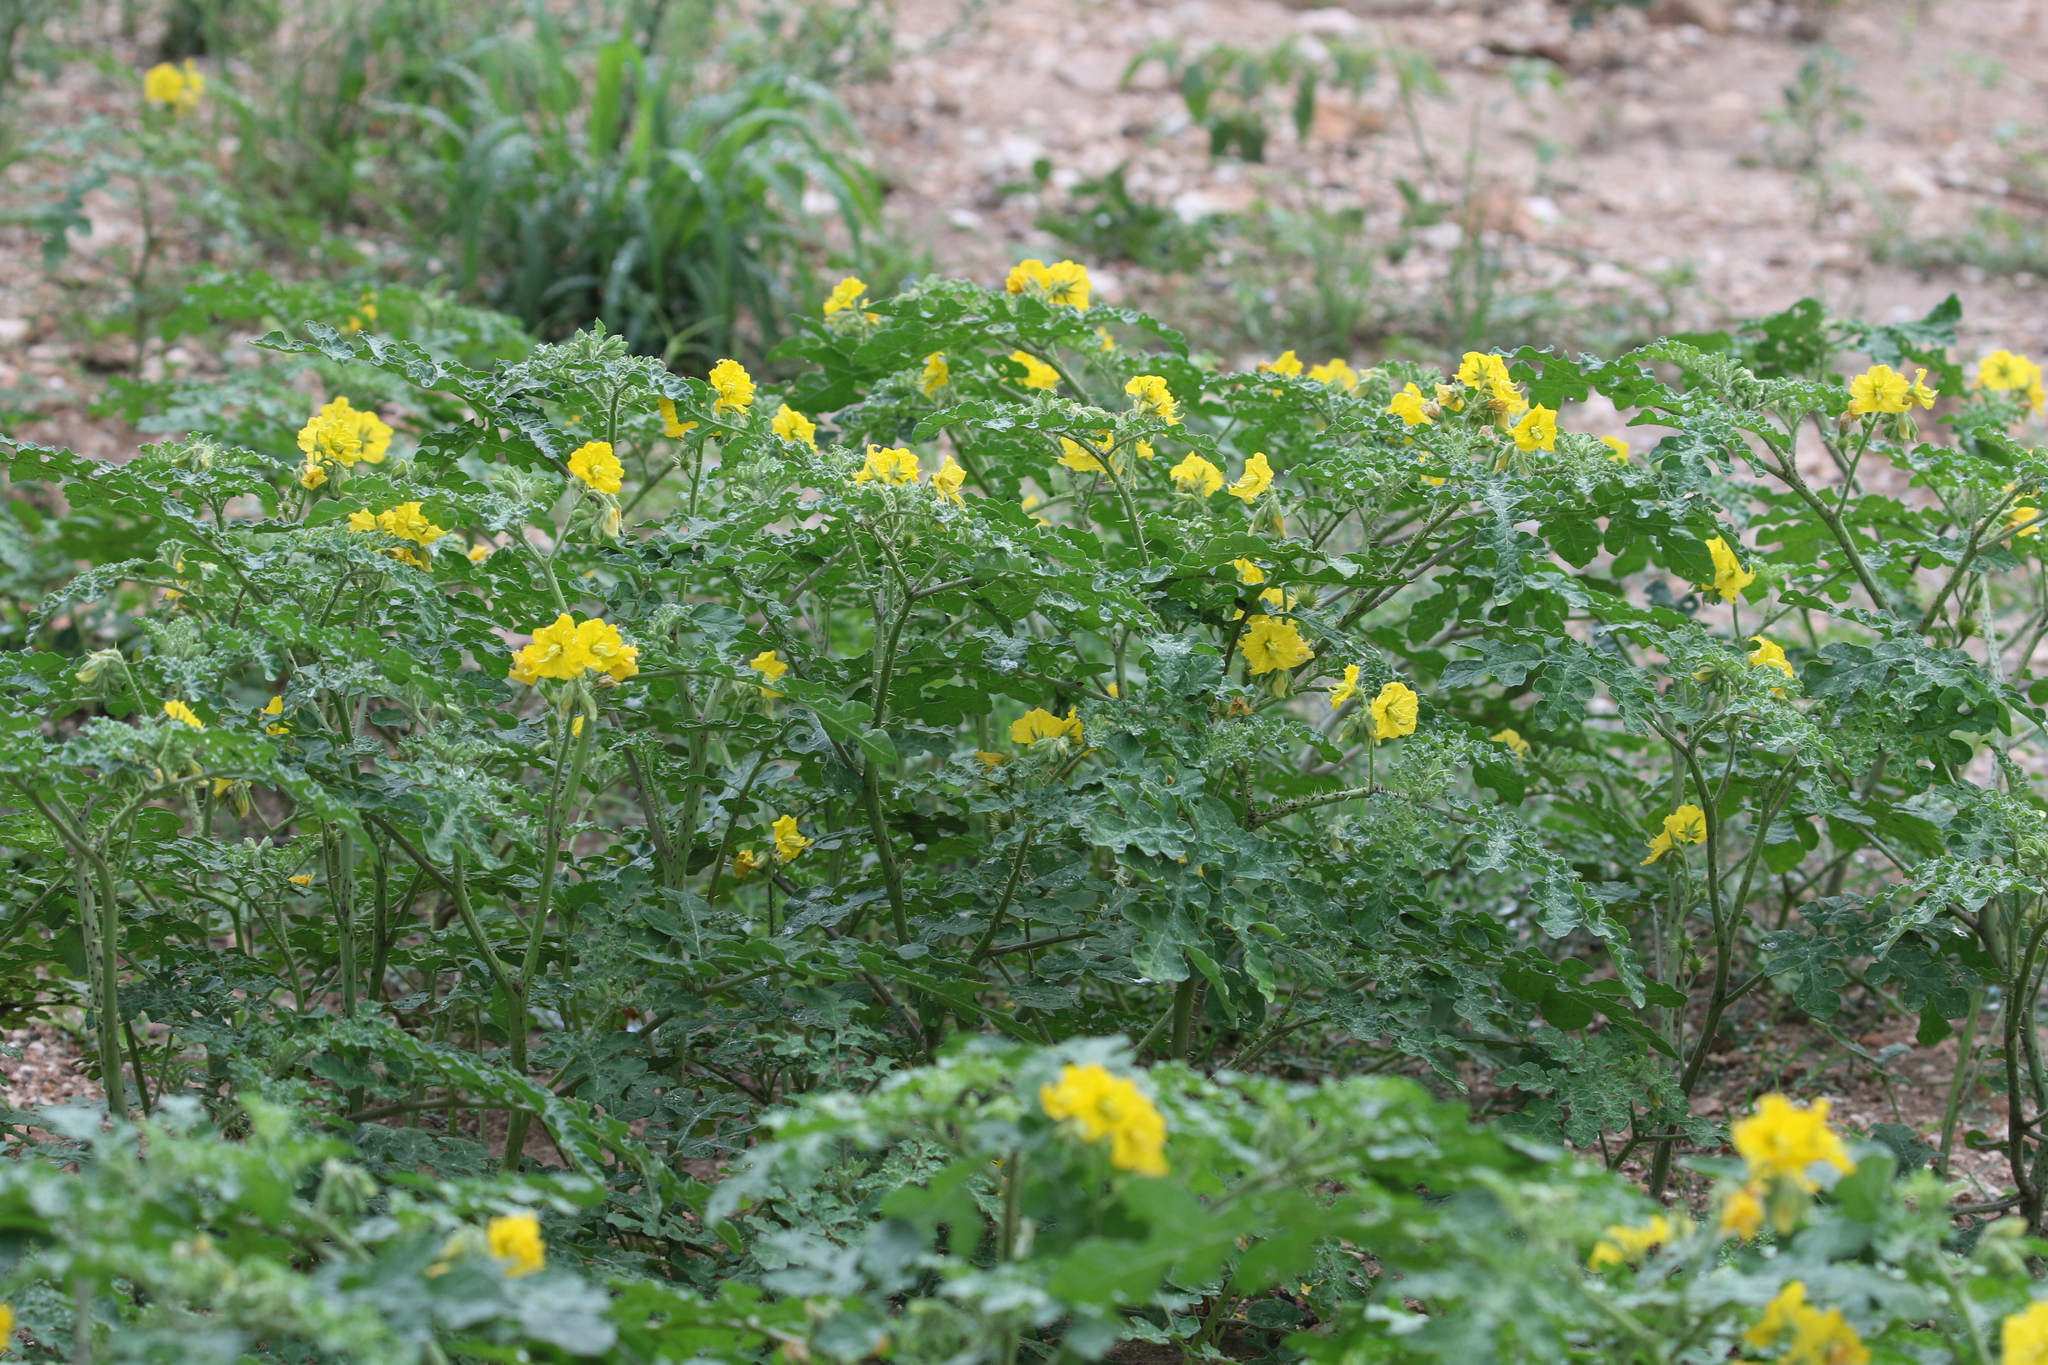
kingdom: Plantae
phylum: Tracheophyta
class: Magnoliopsida
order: Solanales
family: Solanaceae
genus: Solanum
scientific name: Solanum angustifolium
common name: Buffalobur nightshade
